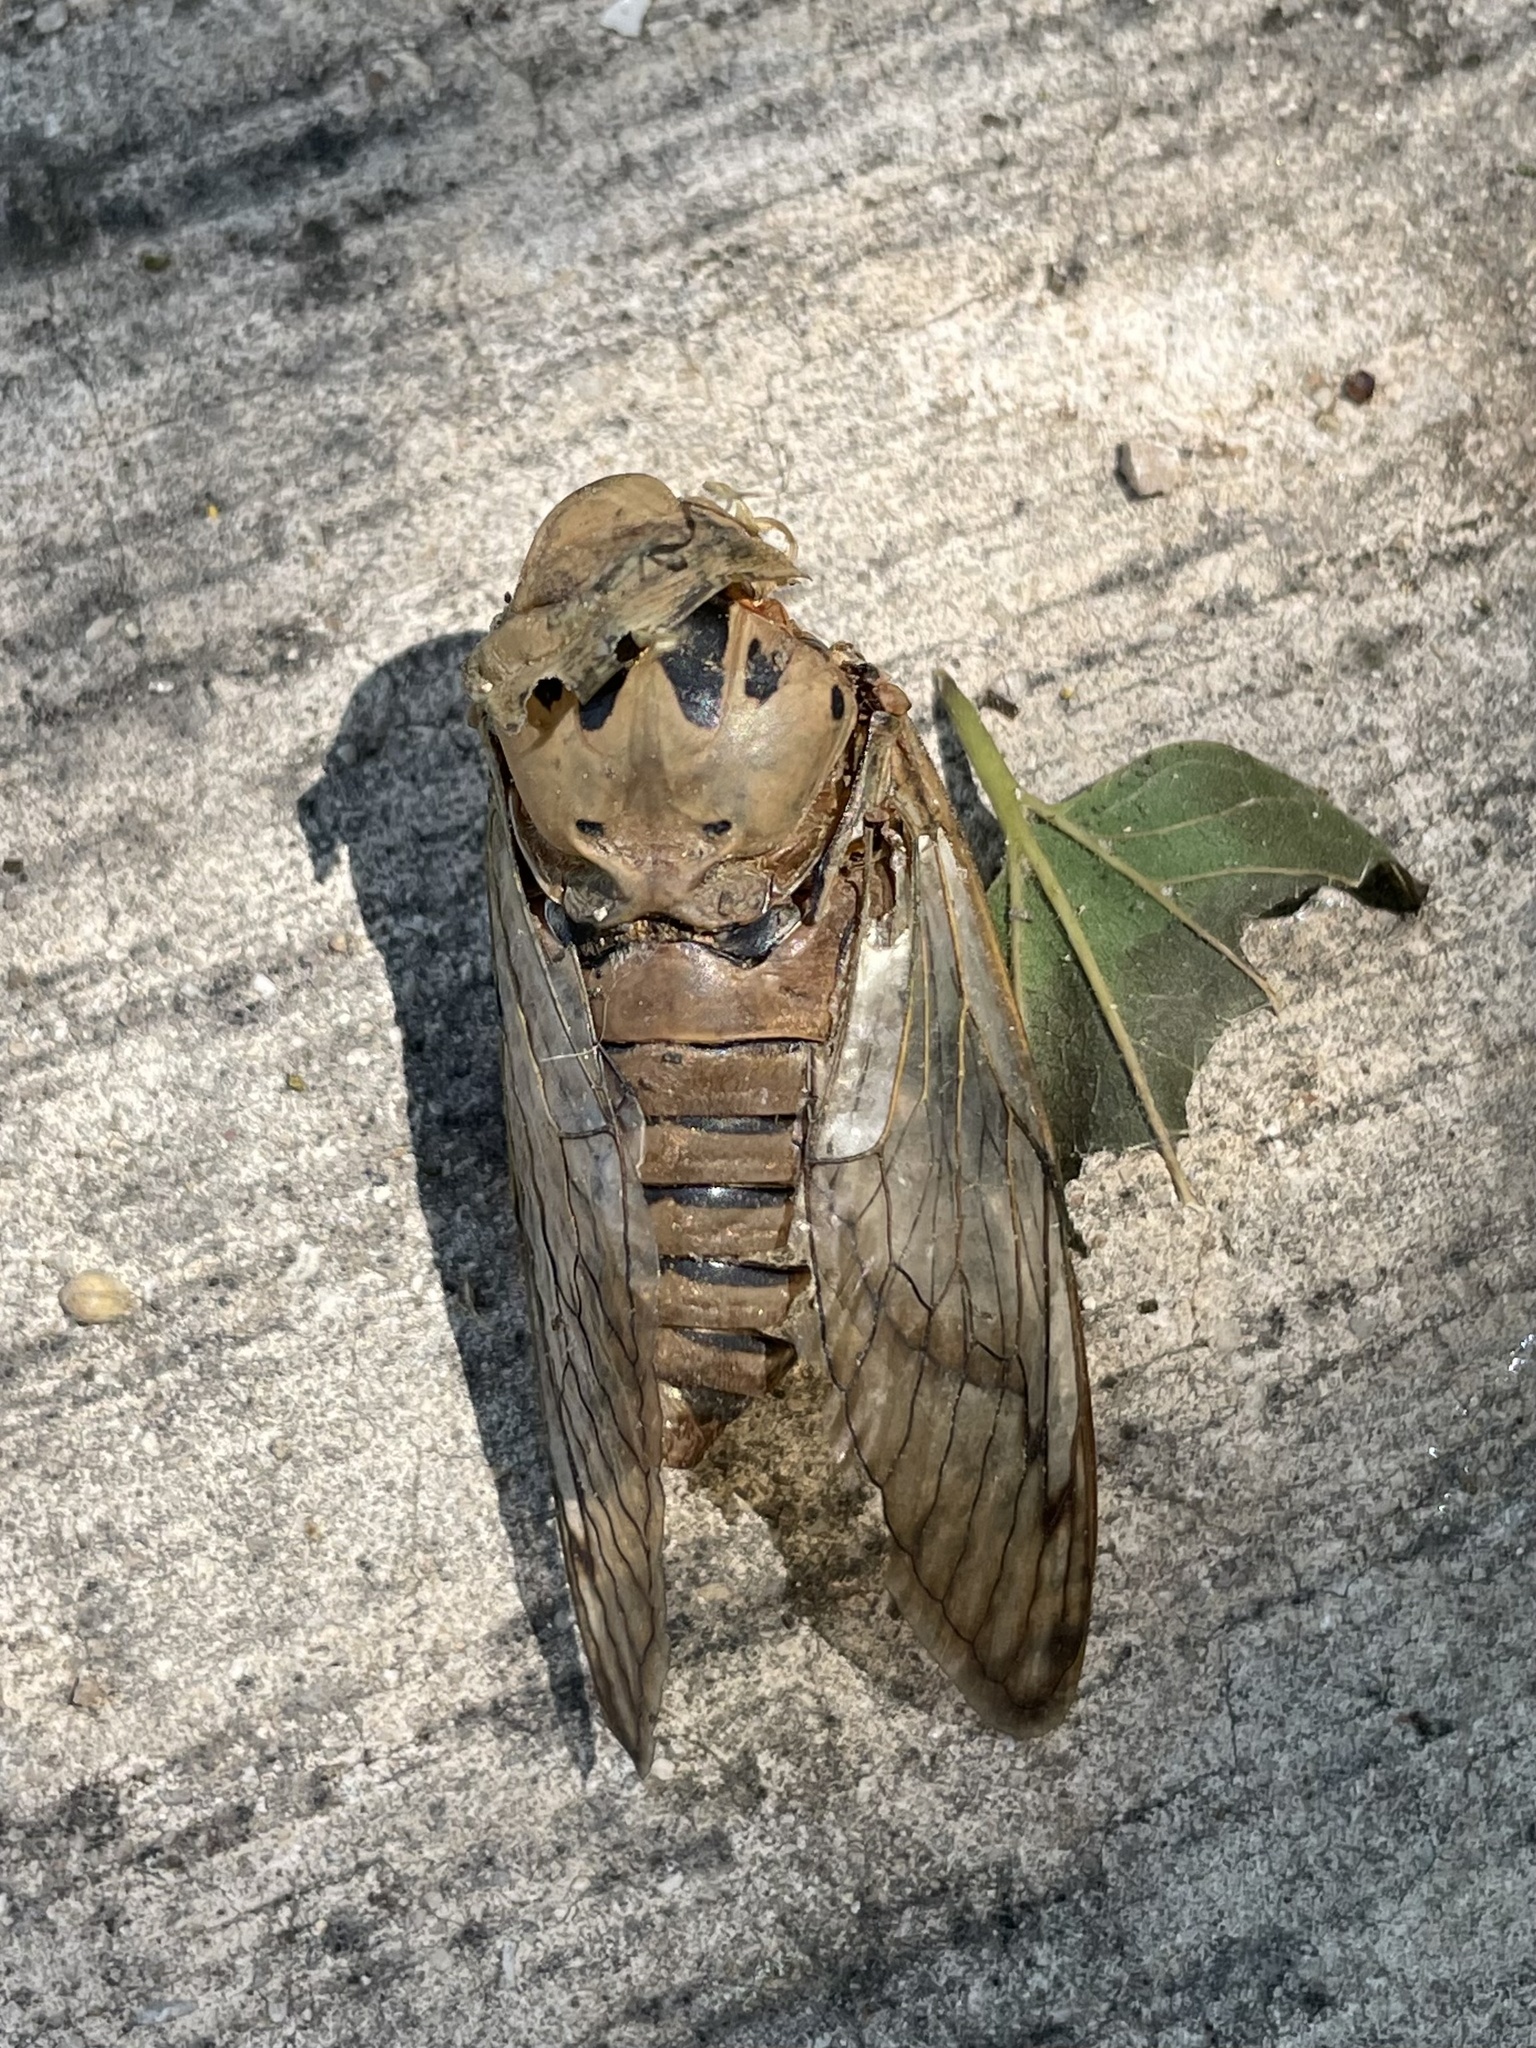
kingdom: Animalia
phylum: Arthropoda
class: Insecta
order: Hemiptera
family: Cicadidae
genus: Neotibicen
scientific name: Neotibicen superbus
